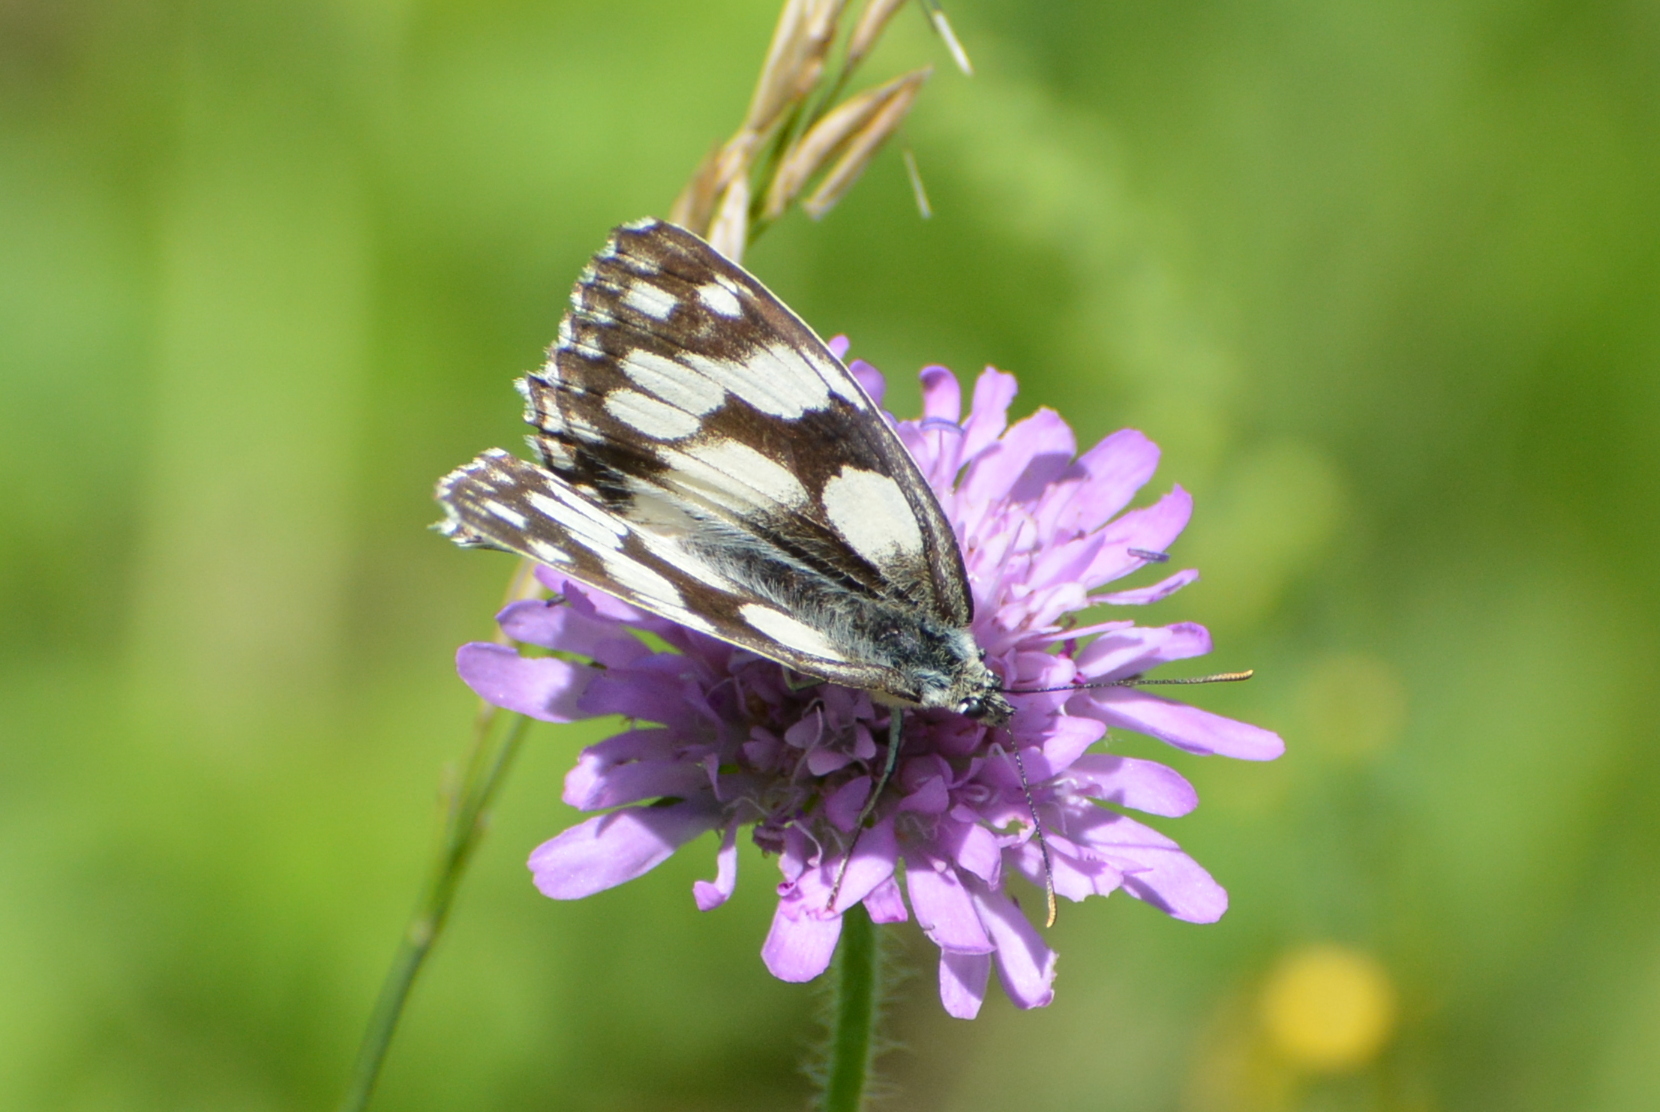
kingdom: Animalia
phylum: Arthropoda
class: Insecta
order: Lepidoptera
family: Nymphalidae
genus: Melanargia
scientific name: Melanargia galathea
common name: Marbled white
